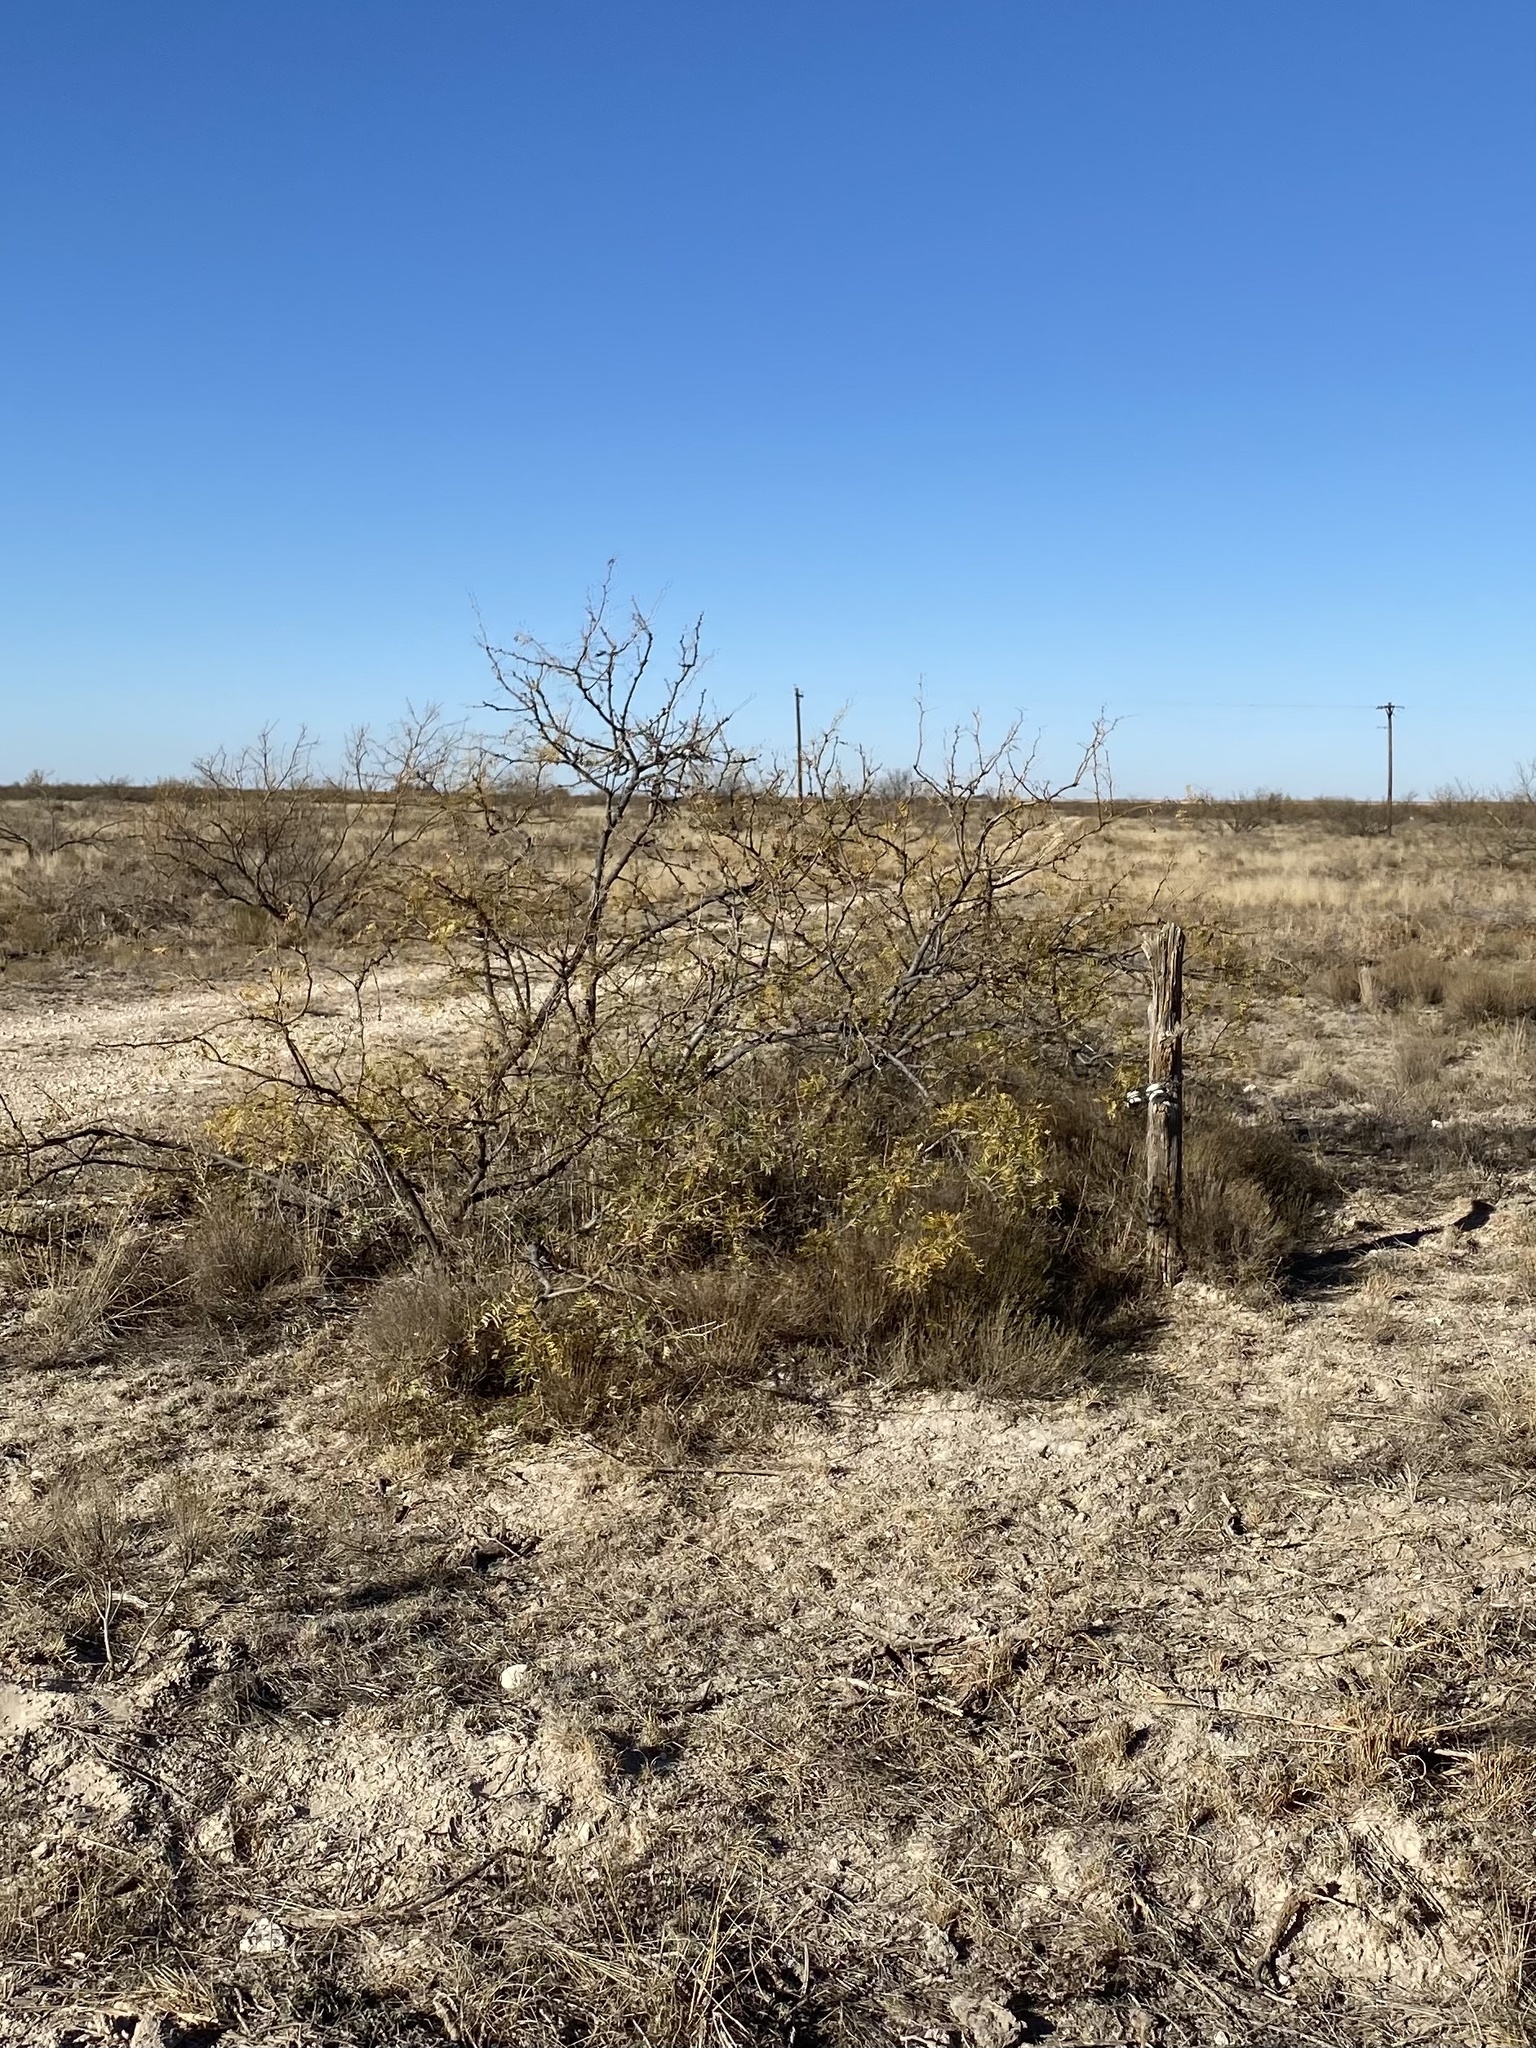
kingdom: Plantae
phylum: Tracheophyta
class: Magnoliopsida
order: Fabales
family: Fabaceae
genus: Prosopis
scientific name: Prosopis glandulosa
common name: Honey mesquite
